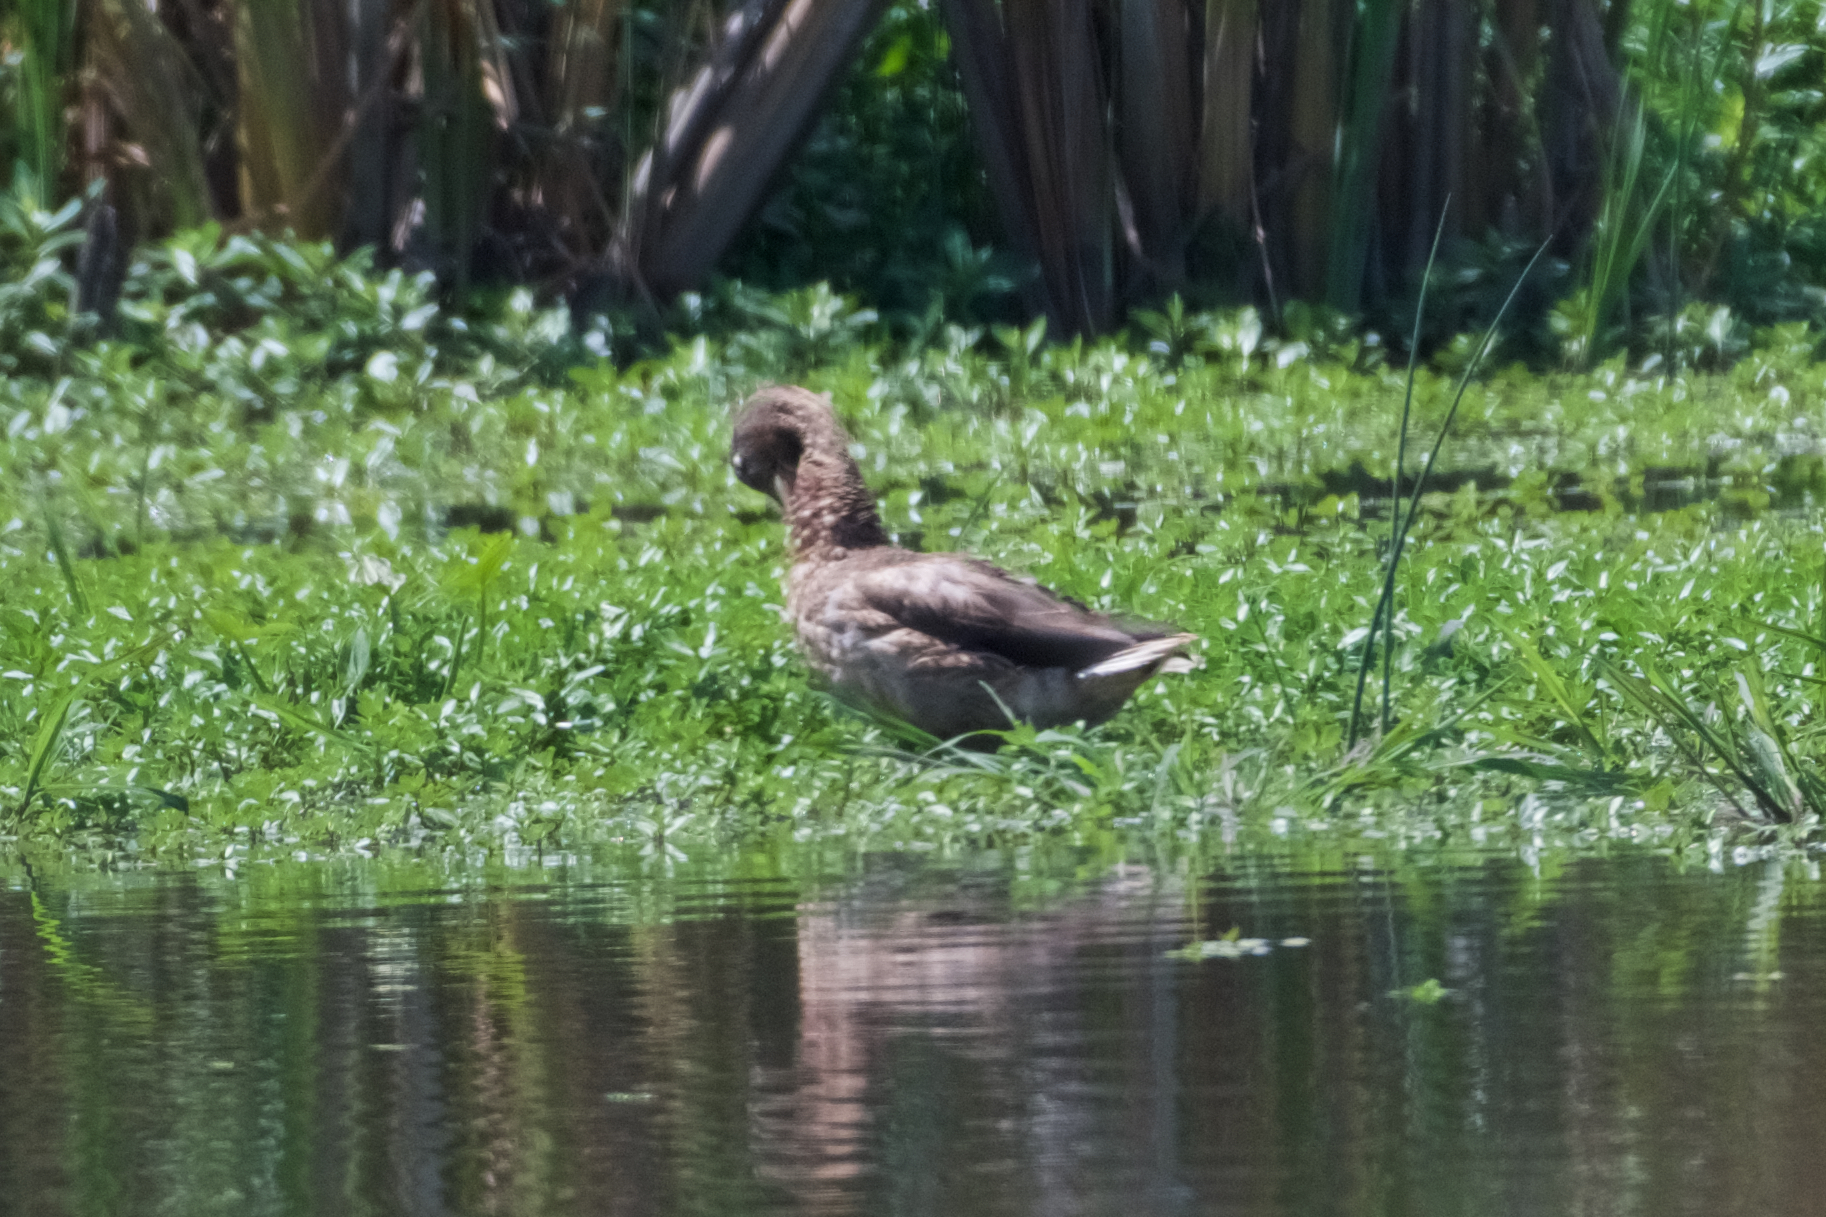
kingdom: Animalia
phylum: Chordata
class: Aves
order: Anseriformes
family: Anatidae
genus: Anas
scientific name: Anas platyrhynchos
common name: Mallard
